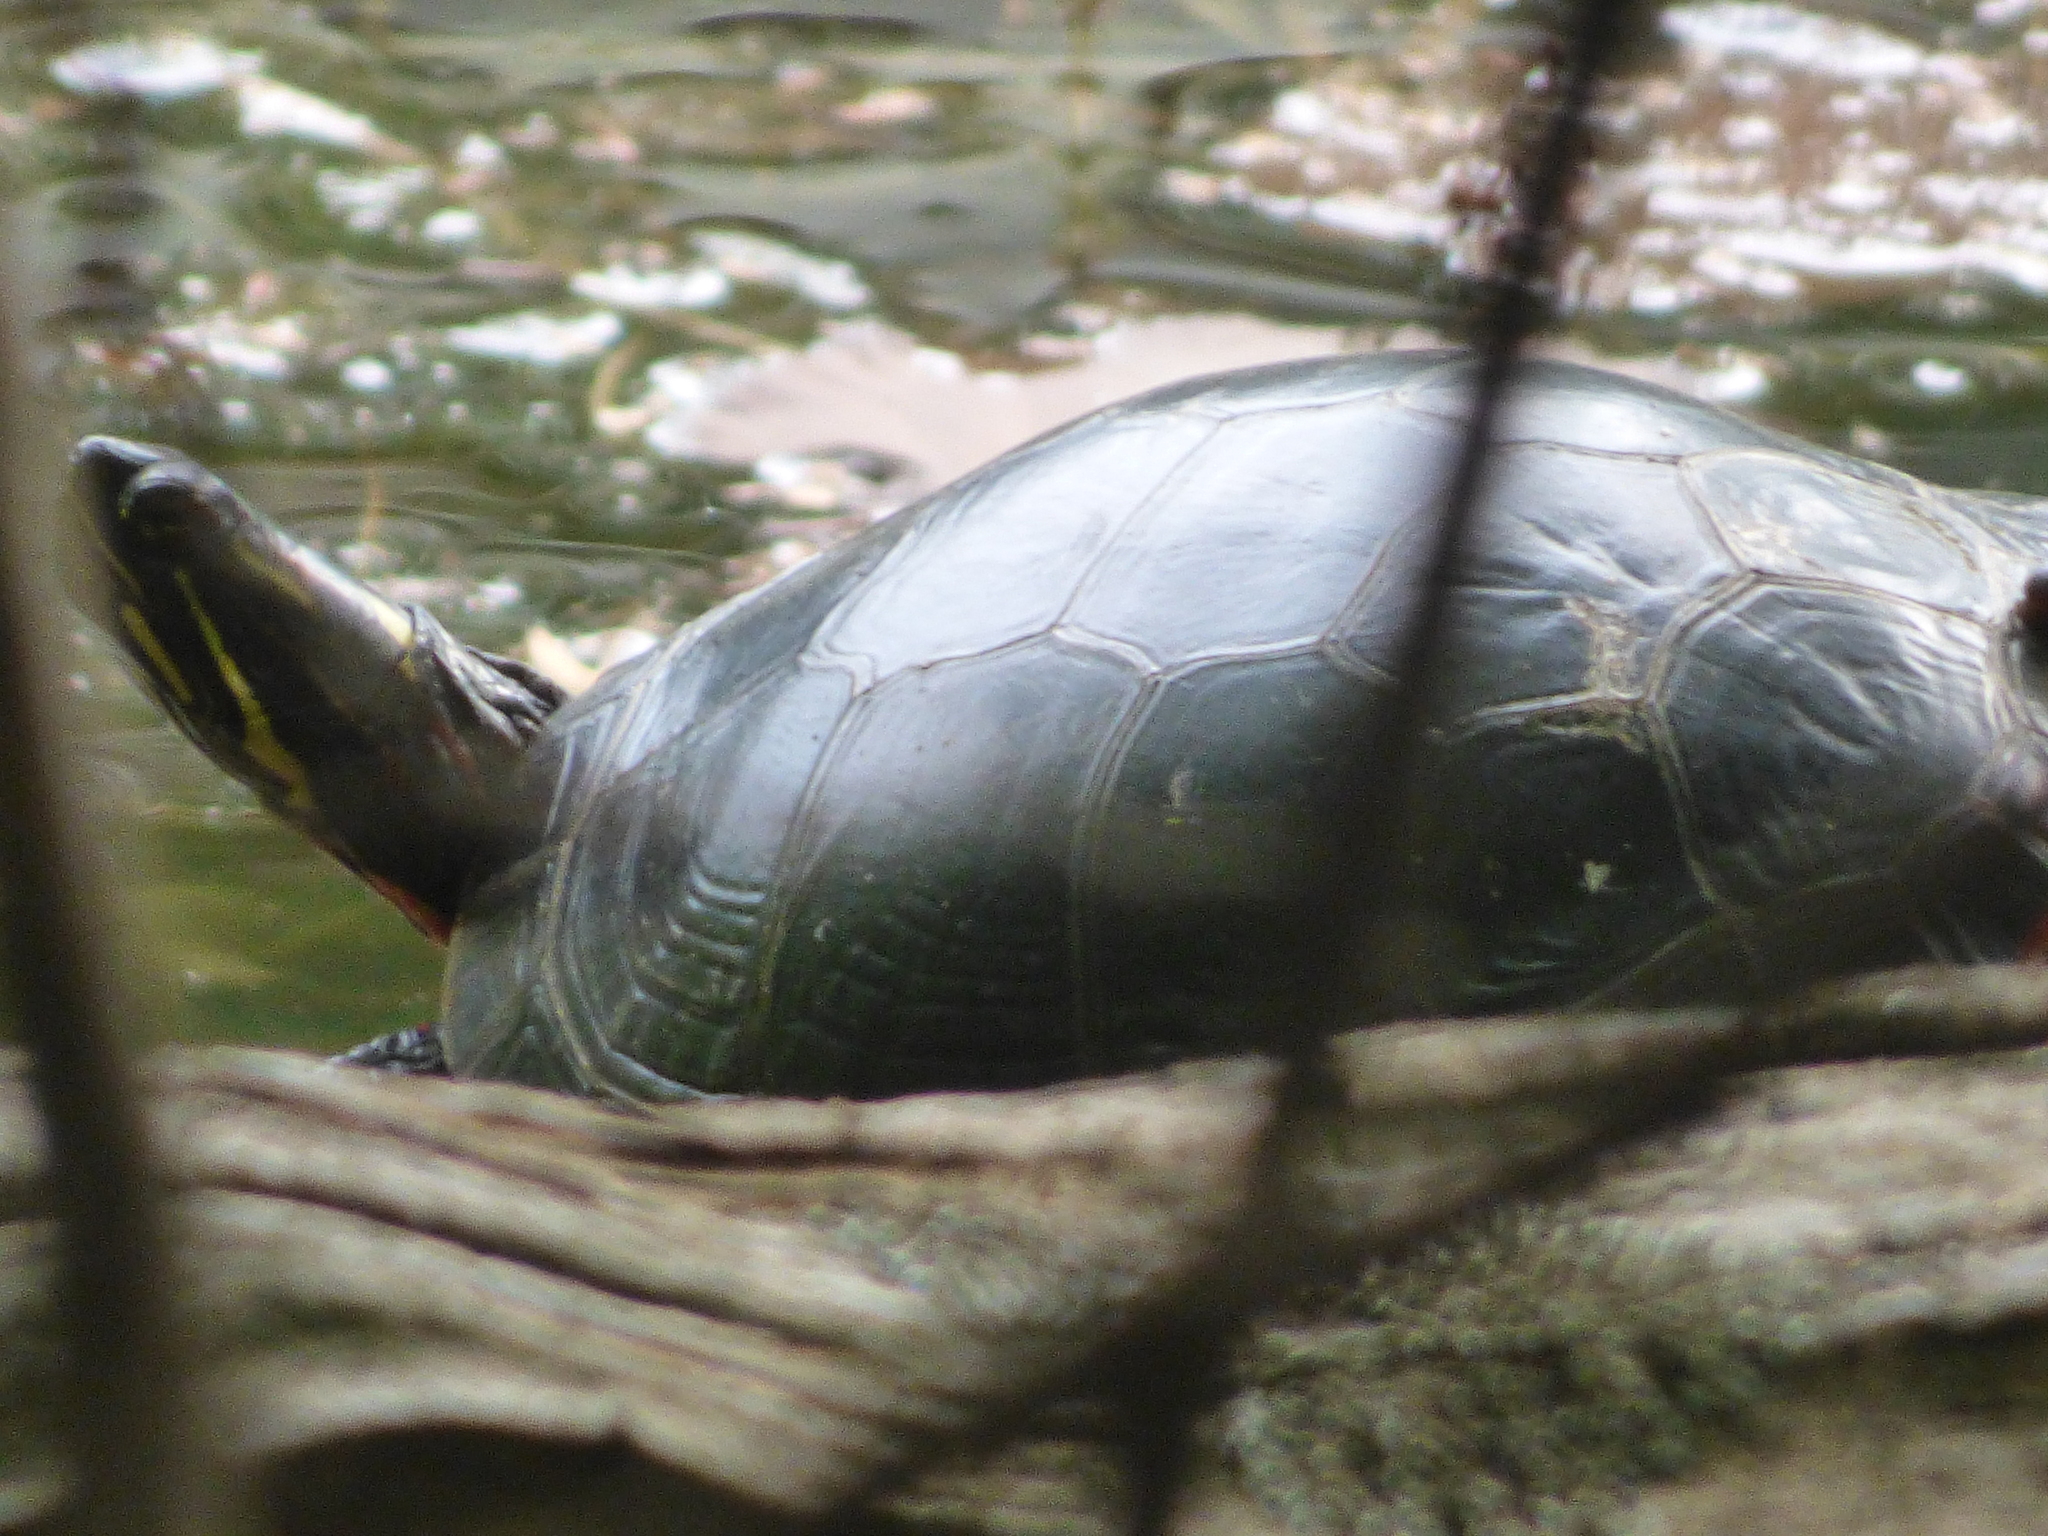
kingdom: Animalia
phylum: Chordata
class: Testudines
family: Emydidae
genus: Chrysemys
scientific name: Chrysemys picta
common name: Painted turtle
